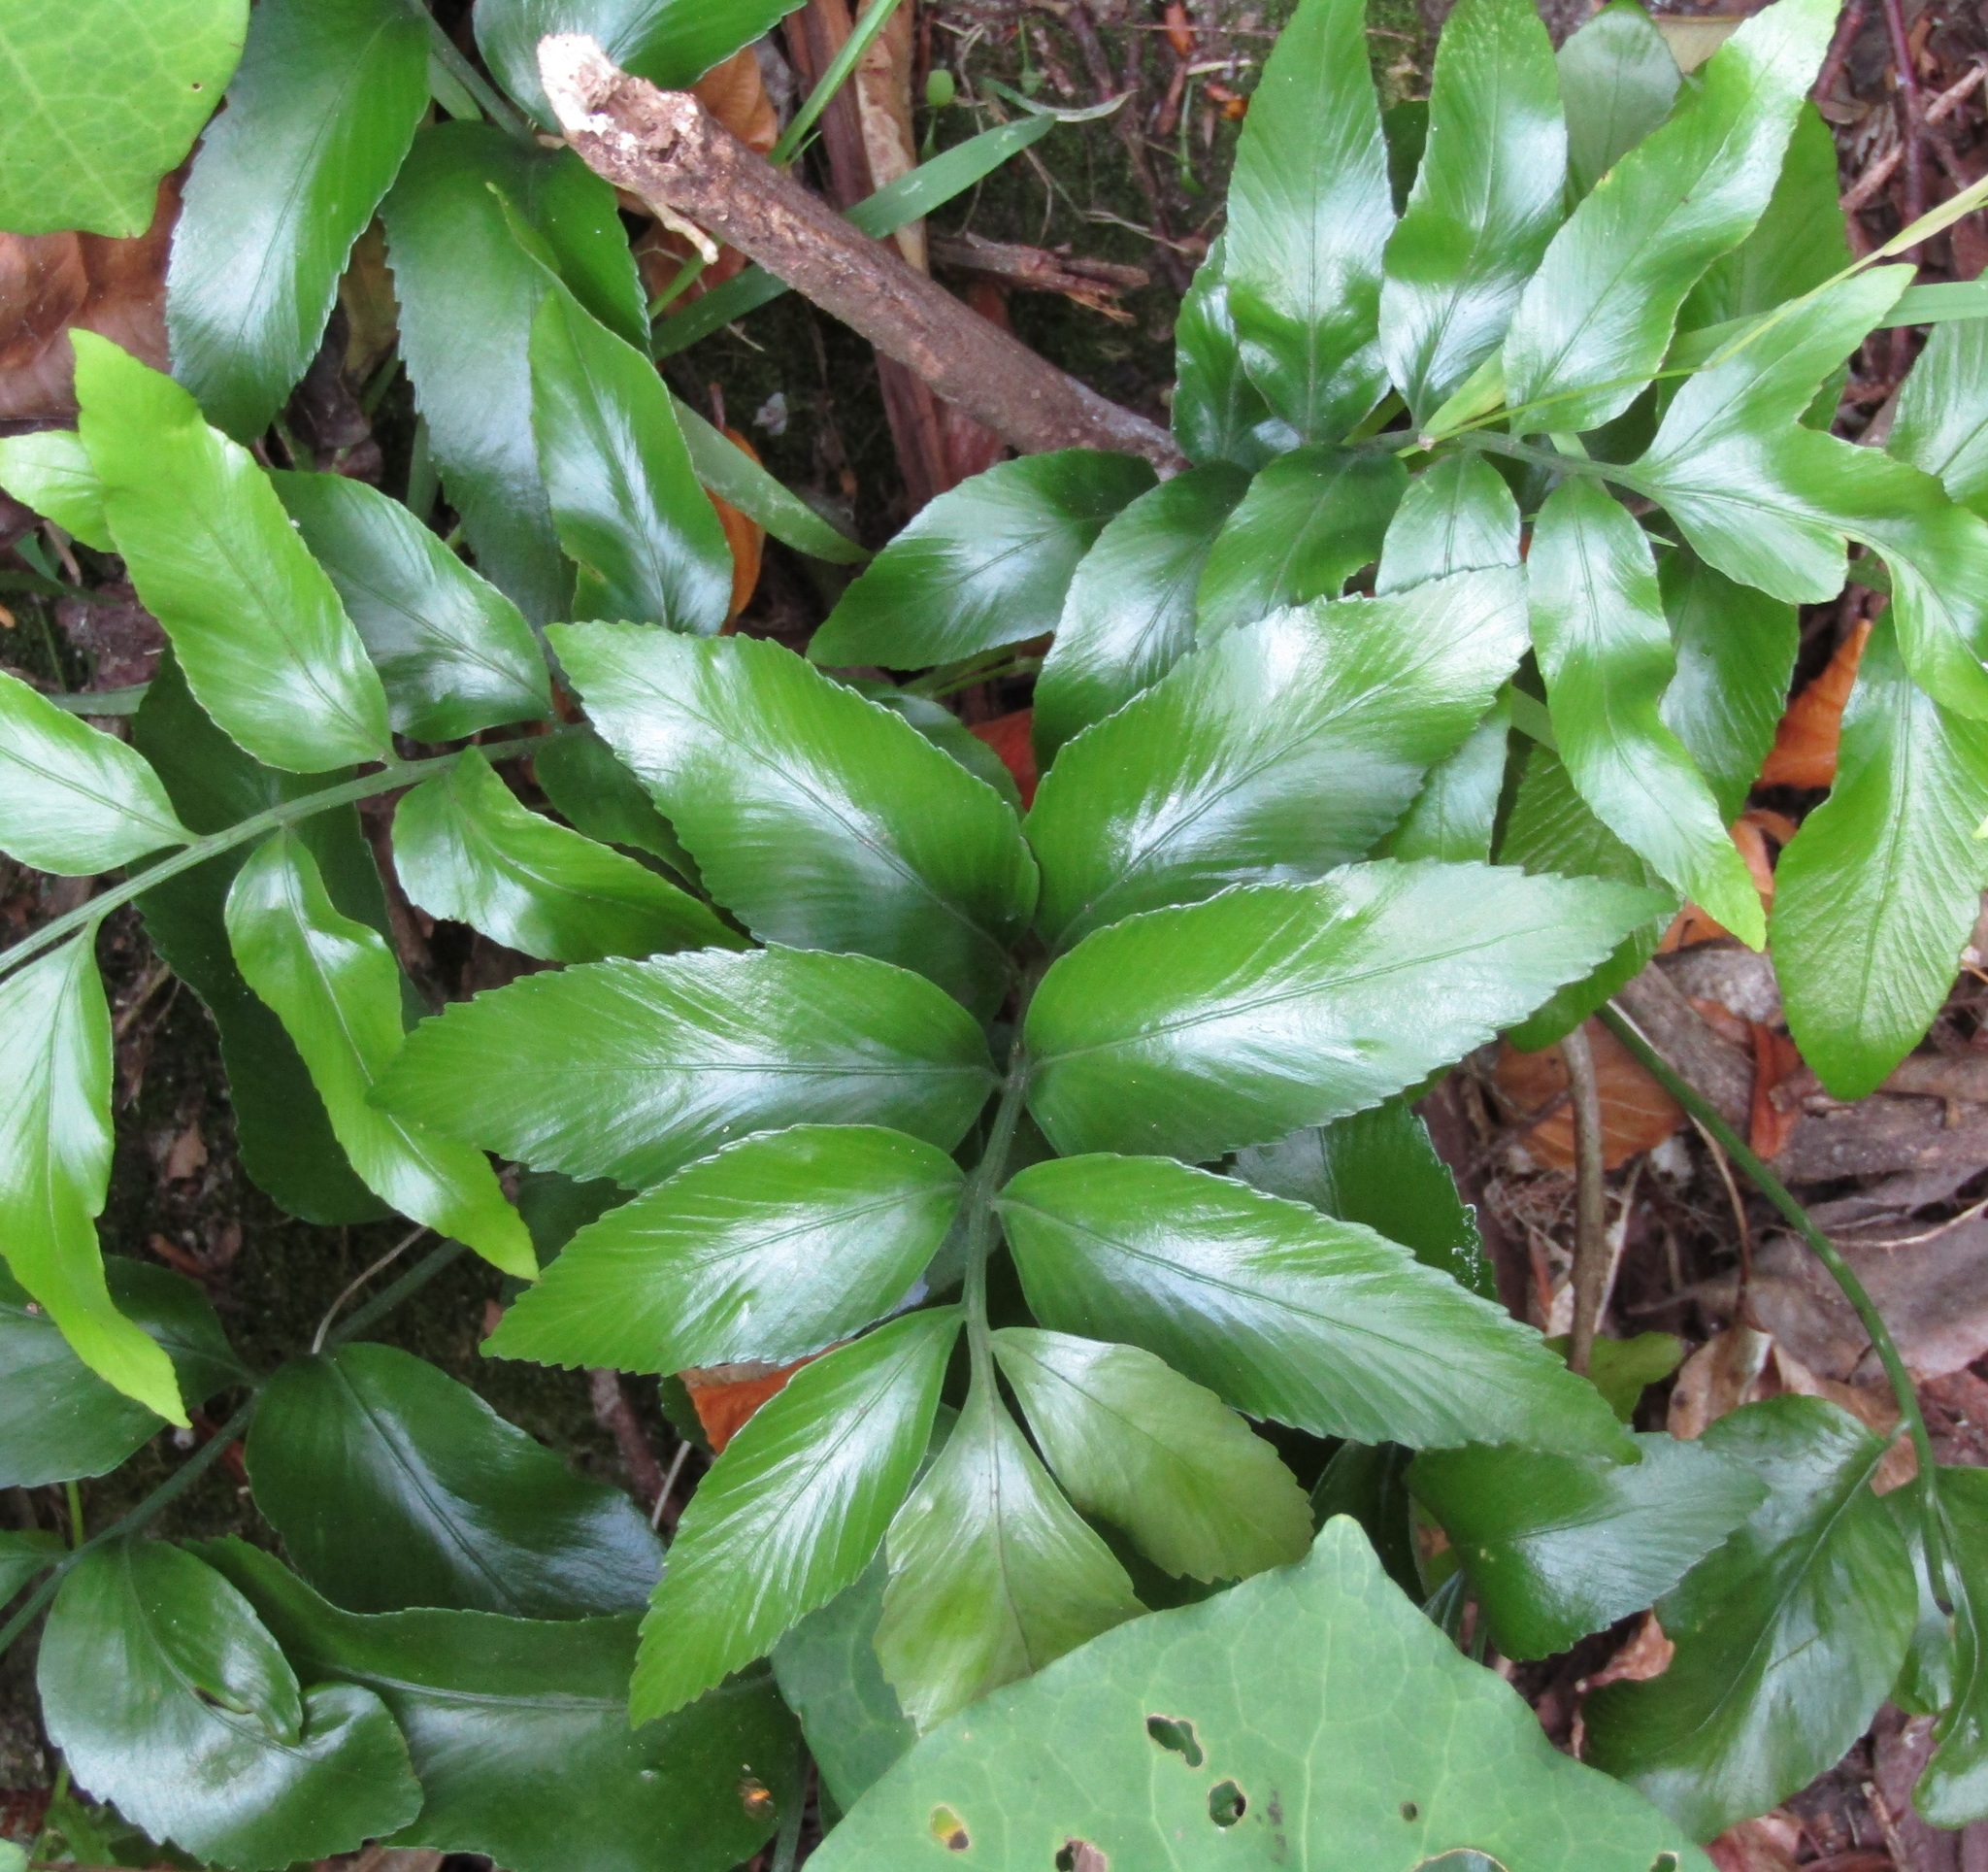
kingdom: Plantae
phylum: Tracheophyta
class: Polypodiopsida
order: Polypodiales
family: Aspleniaceae
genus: Asplenium
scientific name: Asplenium oblongifolium
